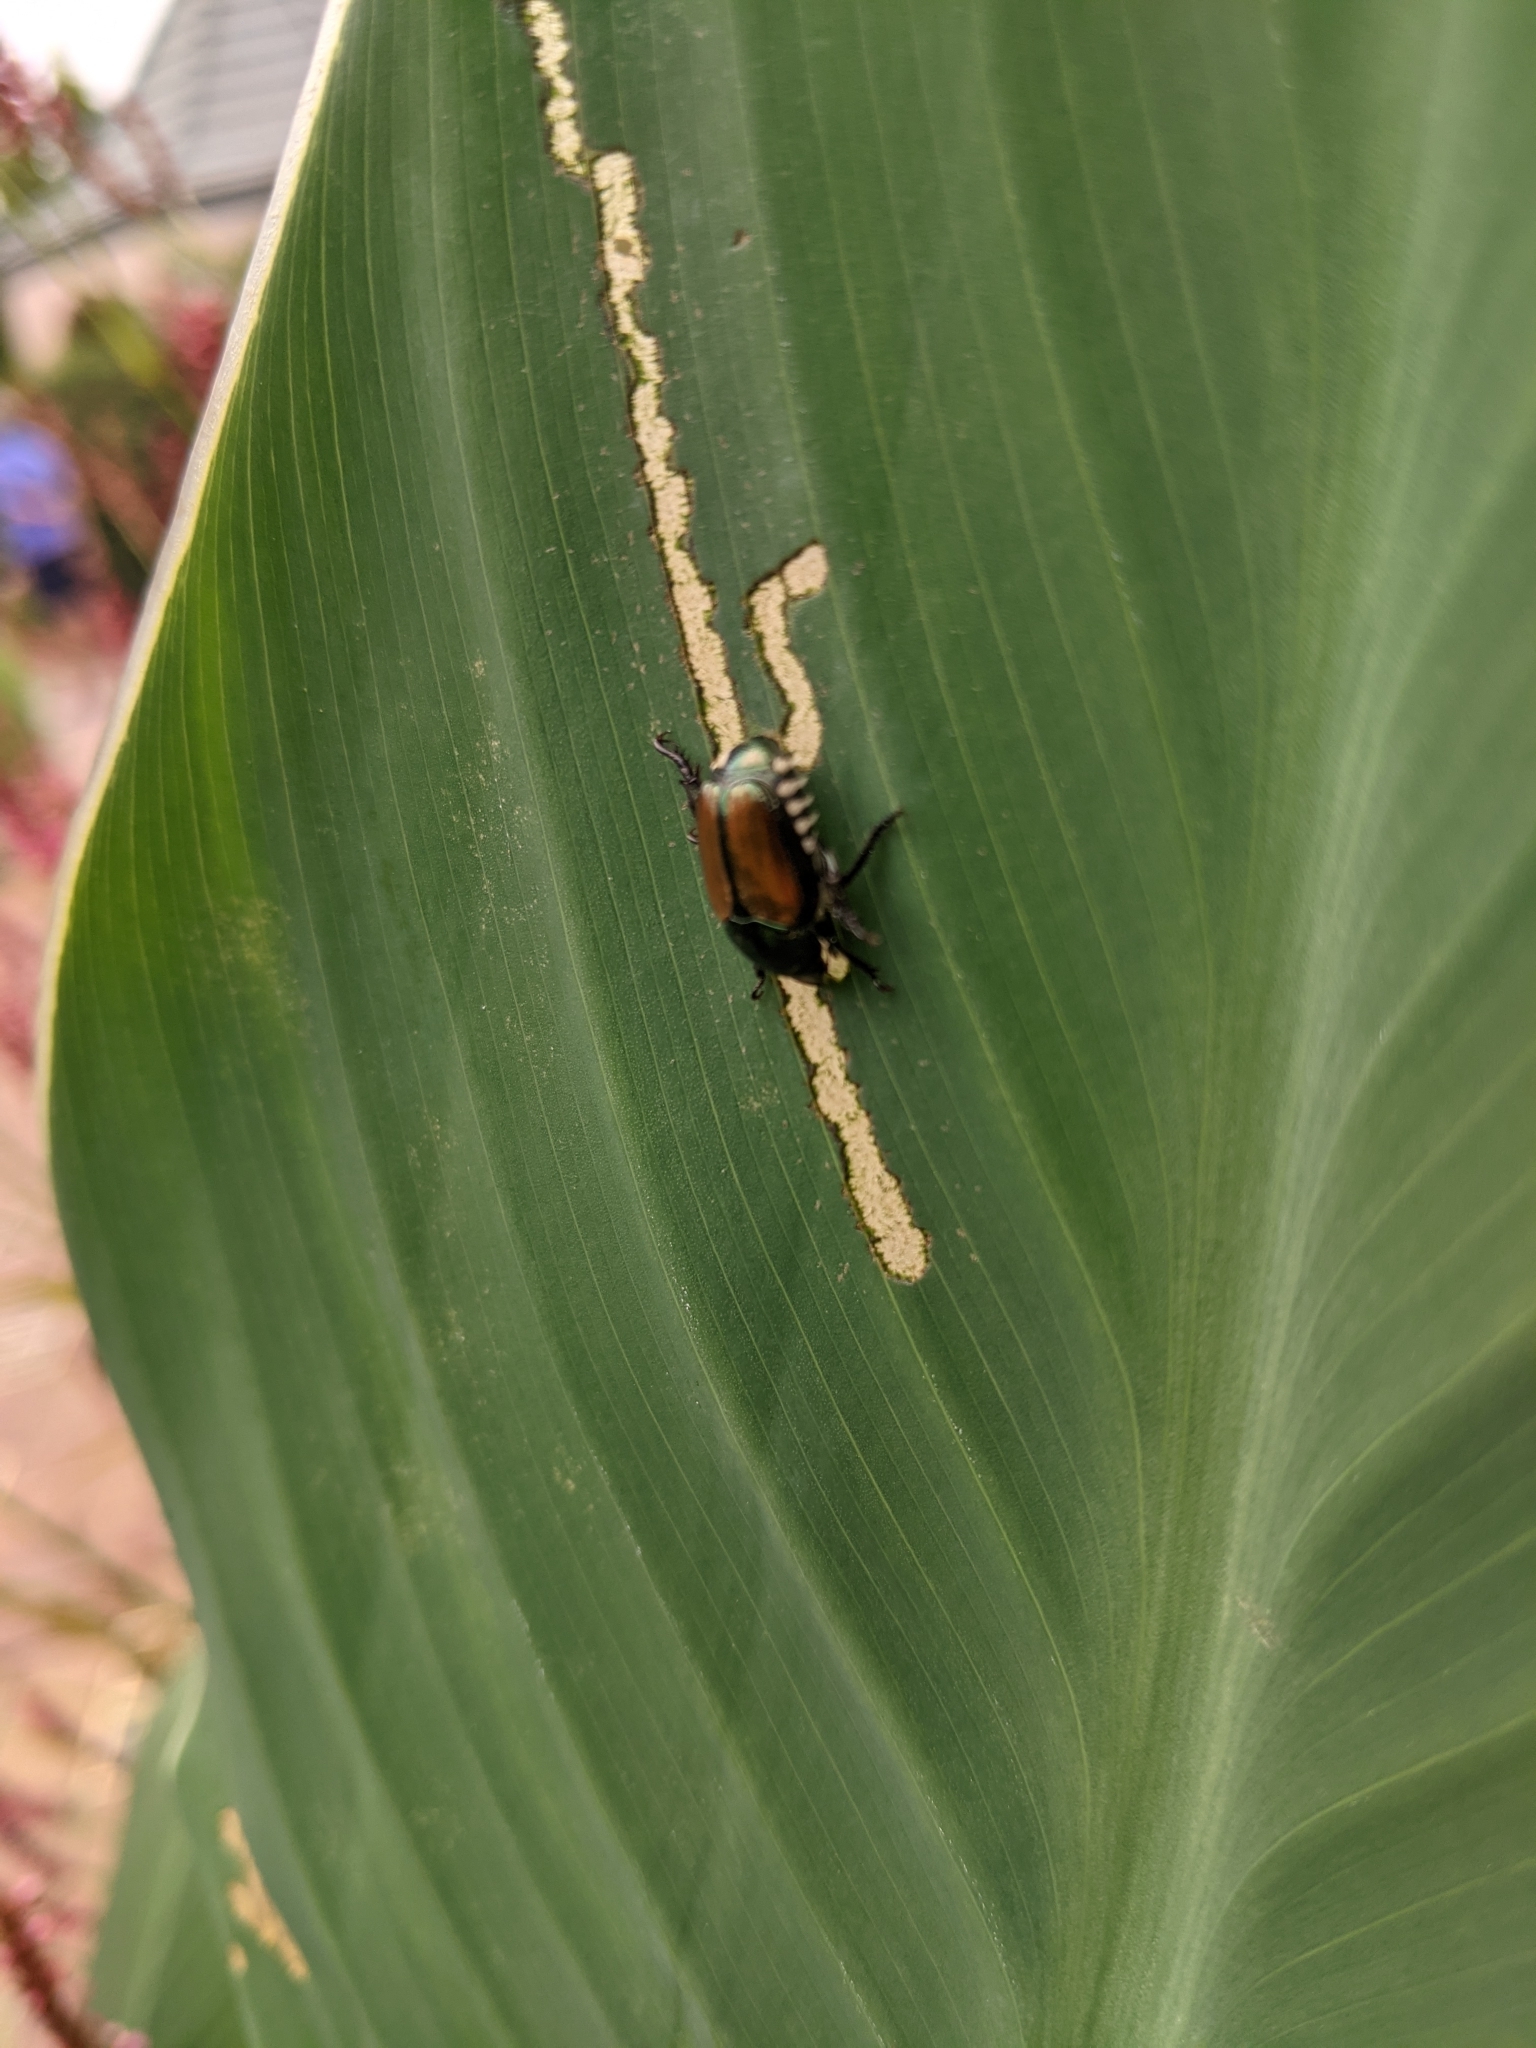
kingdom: Animalia
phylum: Arthropoda
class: Insecta
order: Coleoptera
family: Scarabaeidae
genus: Popillia
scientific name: Popillia japonica
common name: Japanese beetle
